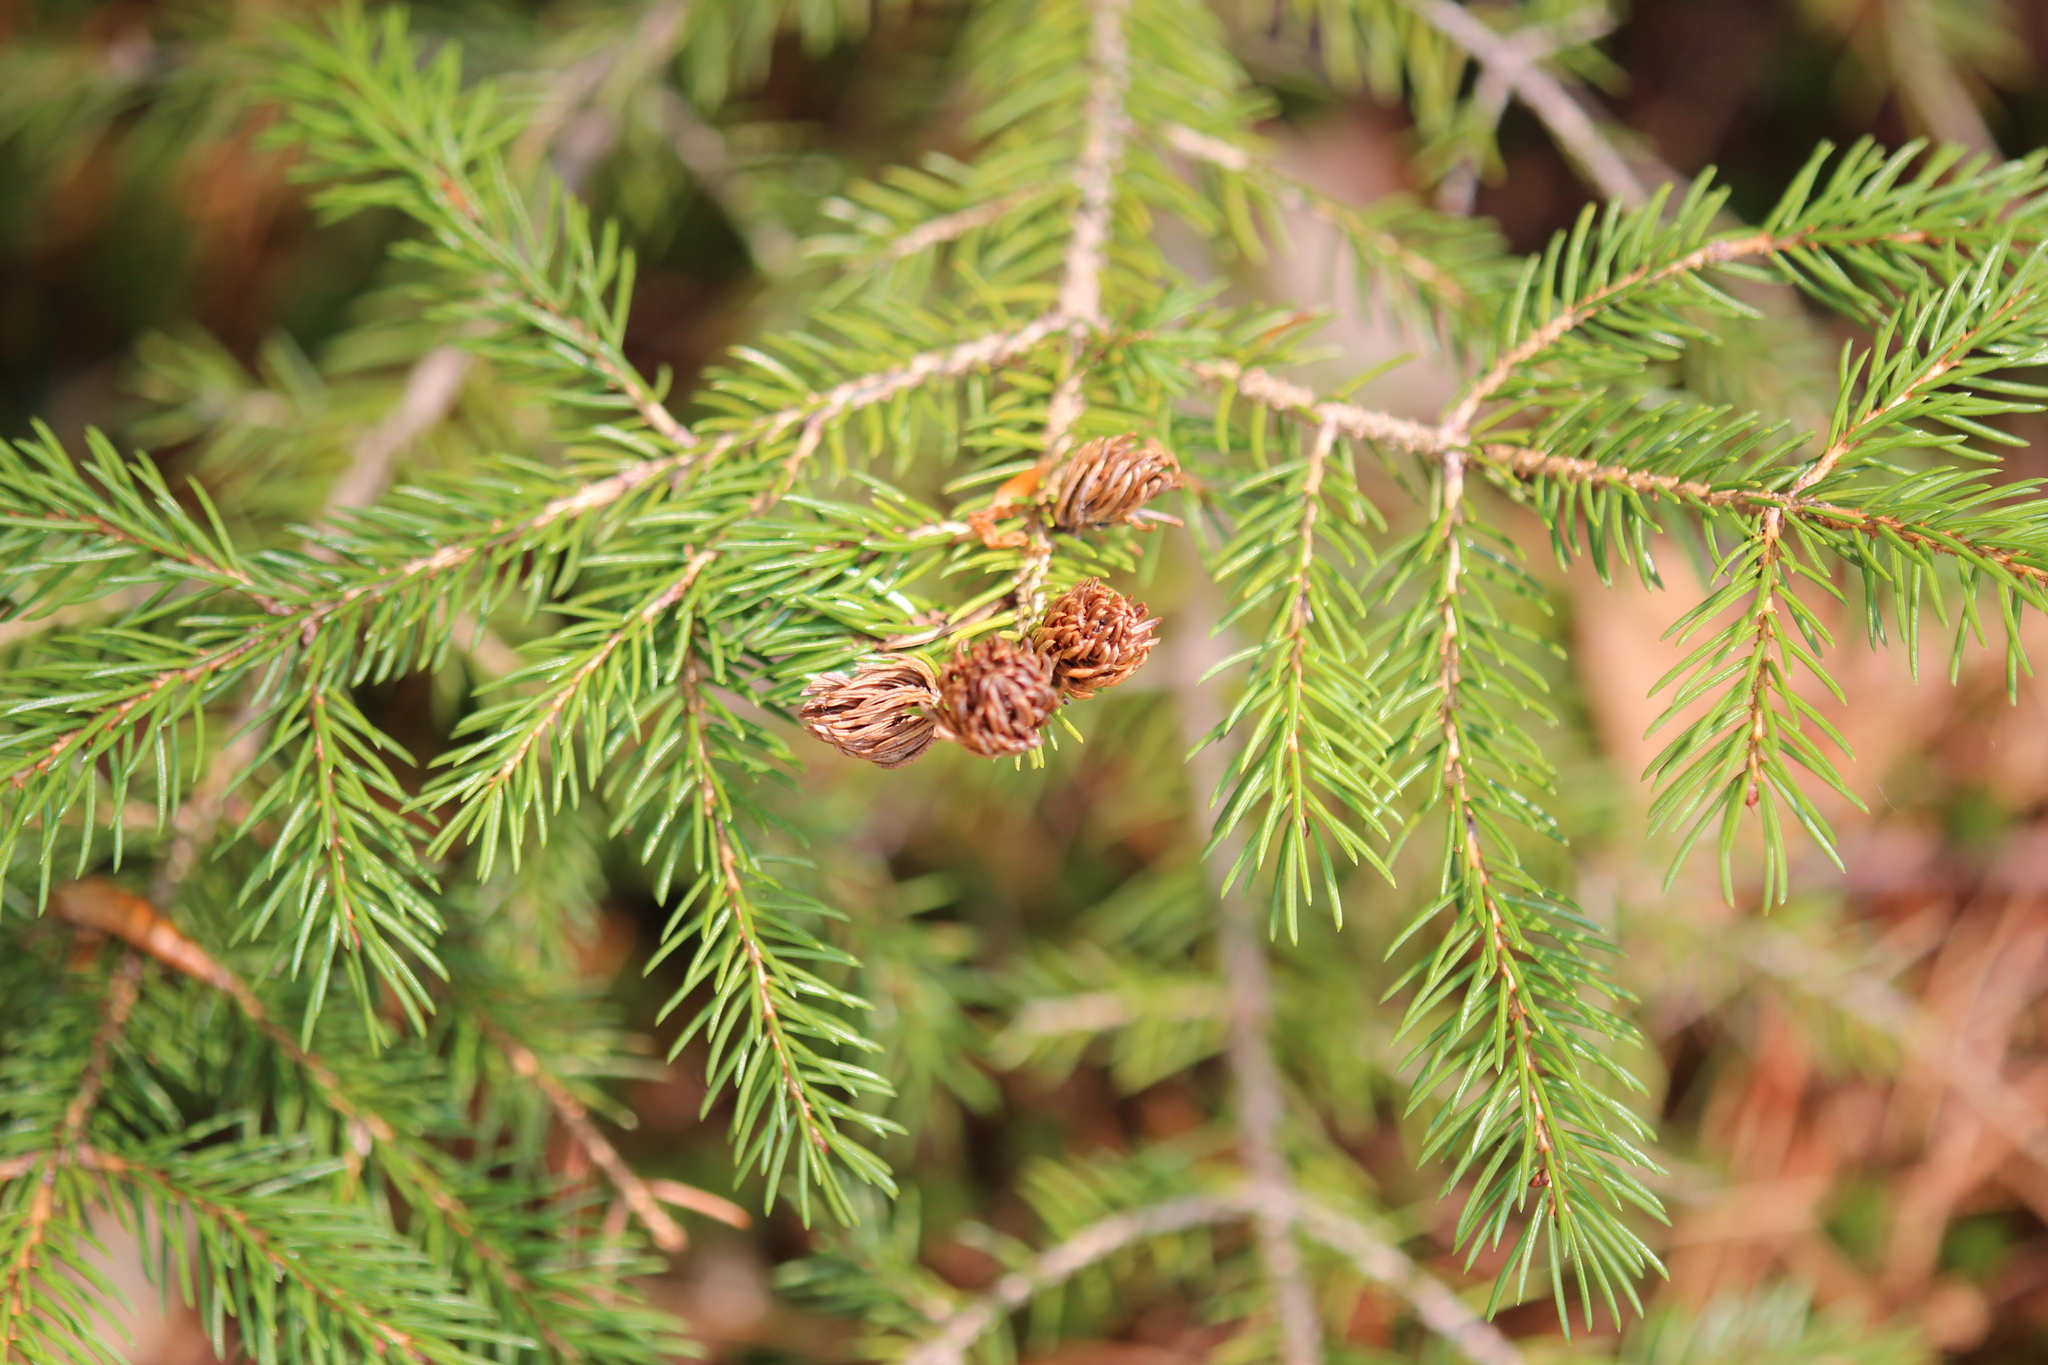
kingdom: Animalia
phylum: Arthropoda
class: Insecta
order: Hemiptera
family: Adelgidae
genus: Adelges
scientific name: Adelges abietis
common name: Eastern spruce gall adelgid
